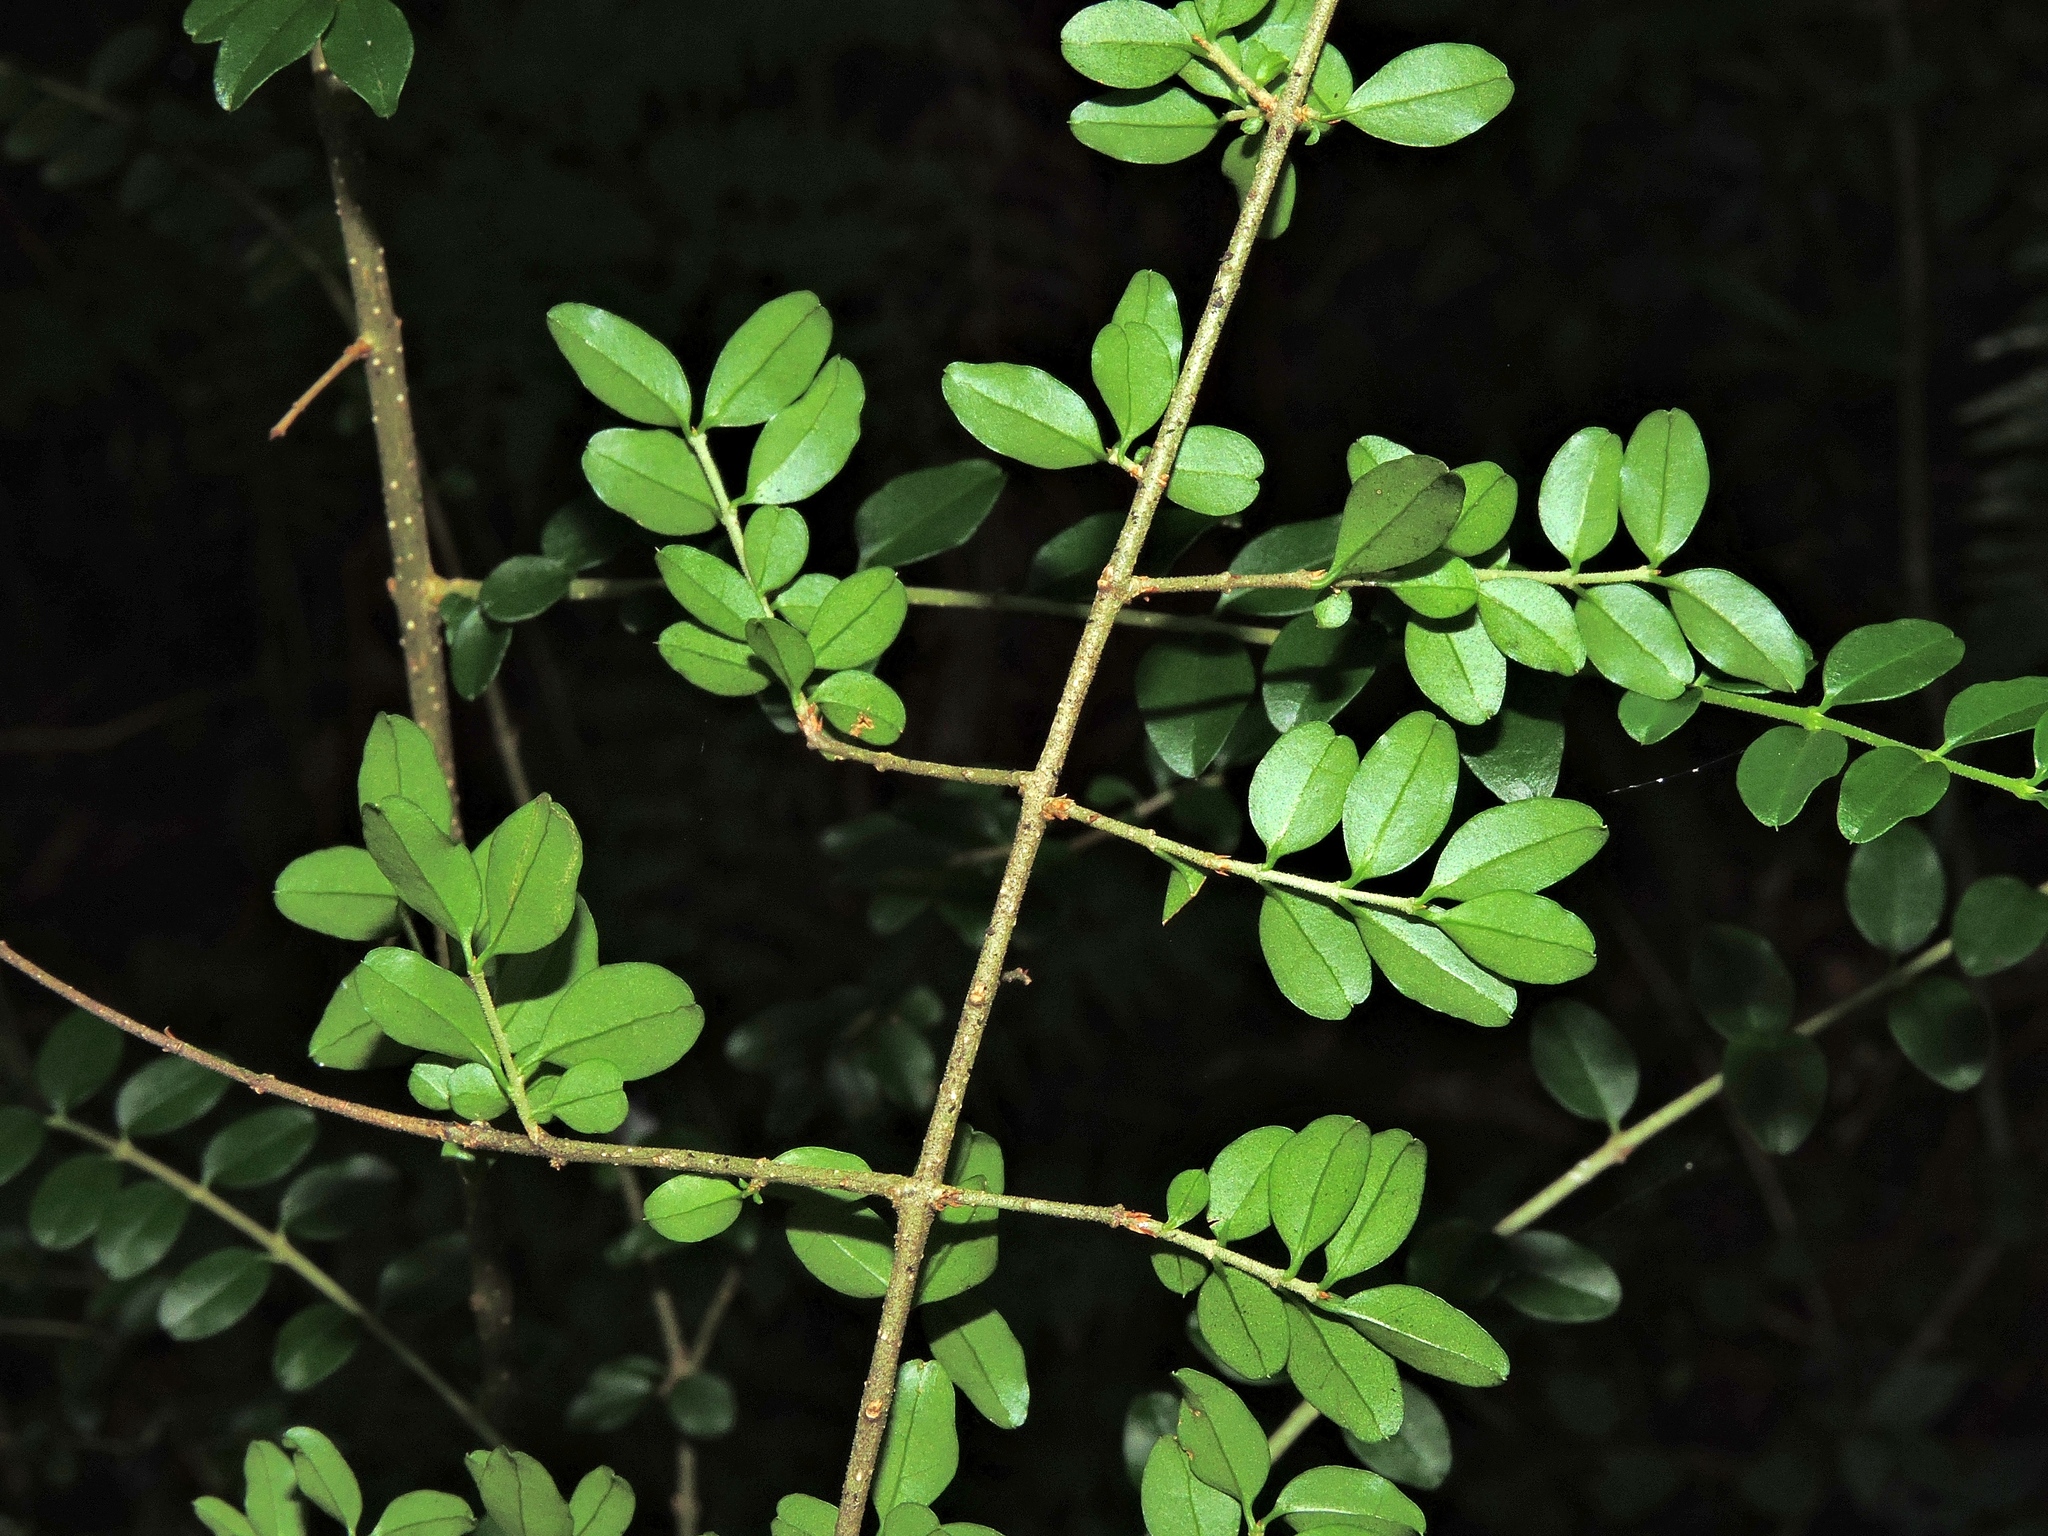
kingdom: Plantae
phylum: Tracheophyta
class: Magnoliopsida
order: Lamiales
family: Oleaceae
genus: Ligustrum
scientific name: Ligustrum morrisonense
